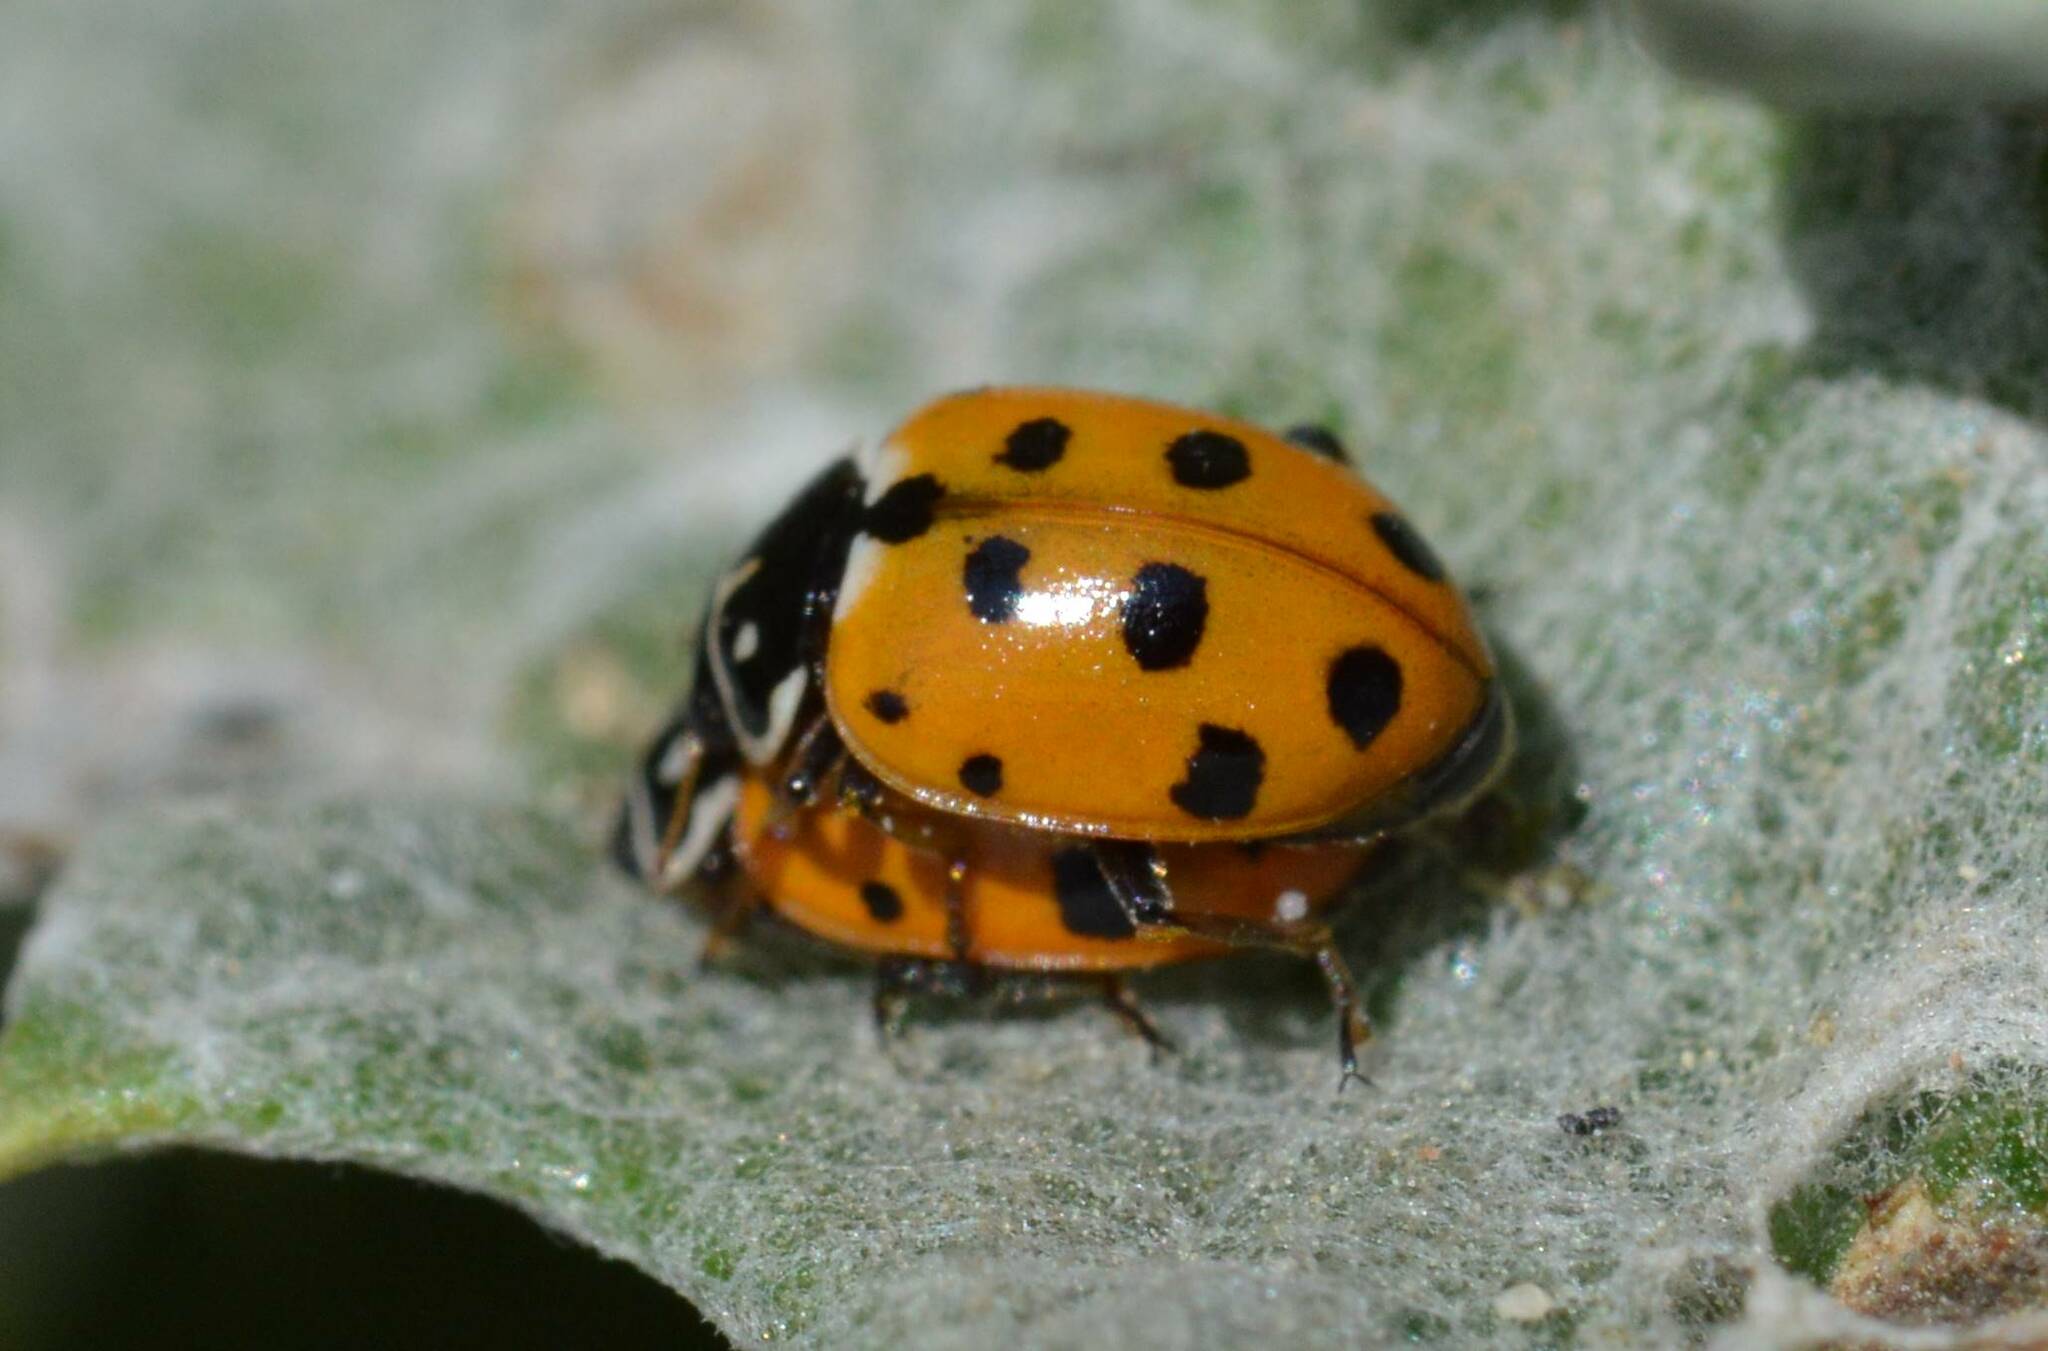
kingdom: Animalia
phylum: Arthropoda
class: Insecta
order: Coleoptera
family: Coccinellidae
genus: Hippodamia
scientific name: Hippodamia variegata
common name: Ladybird beetle
